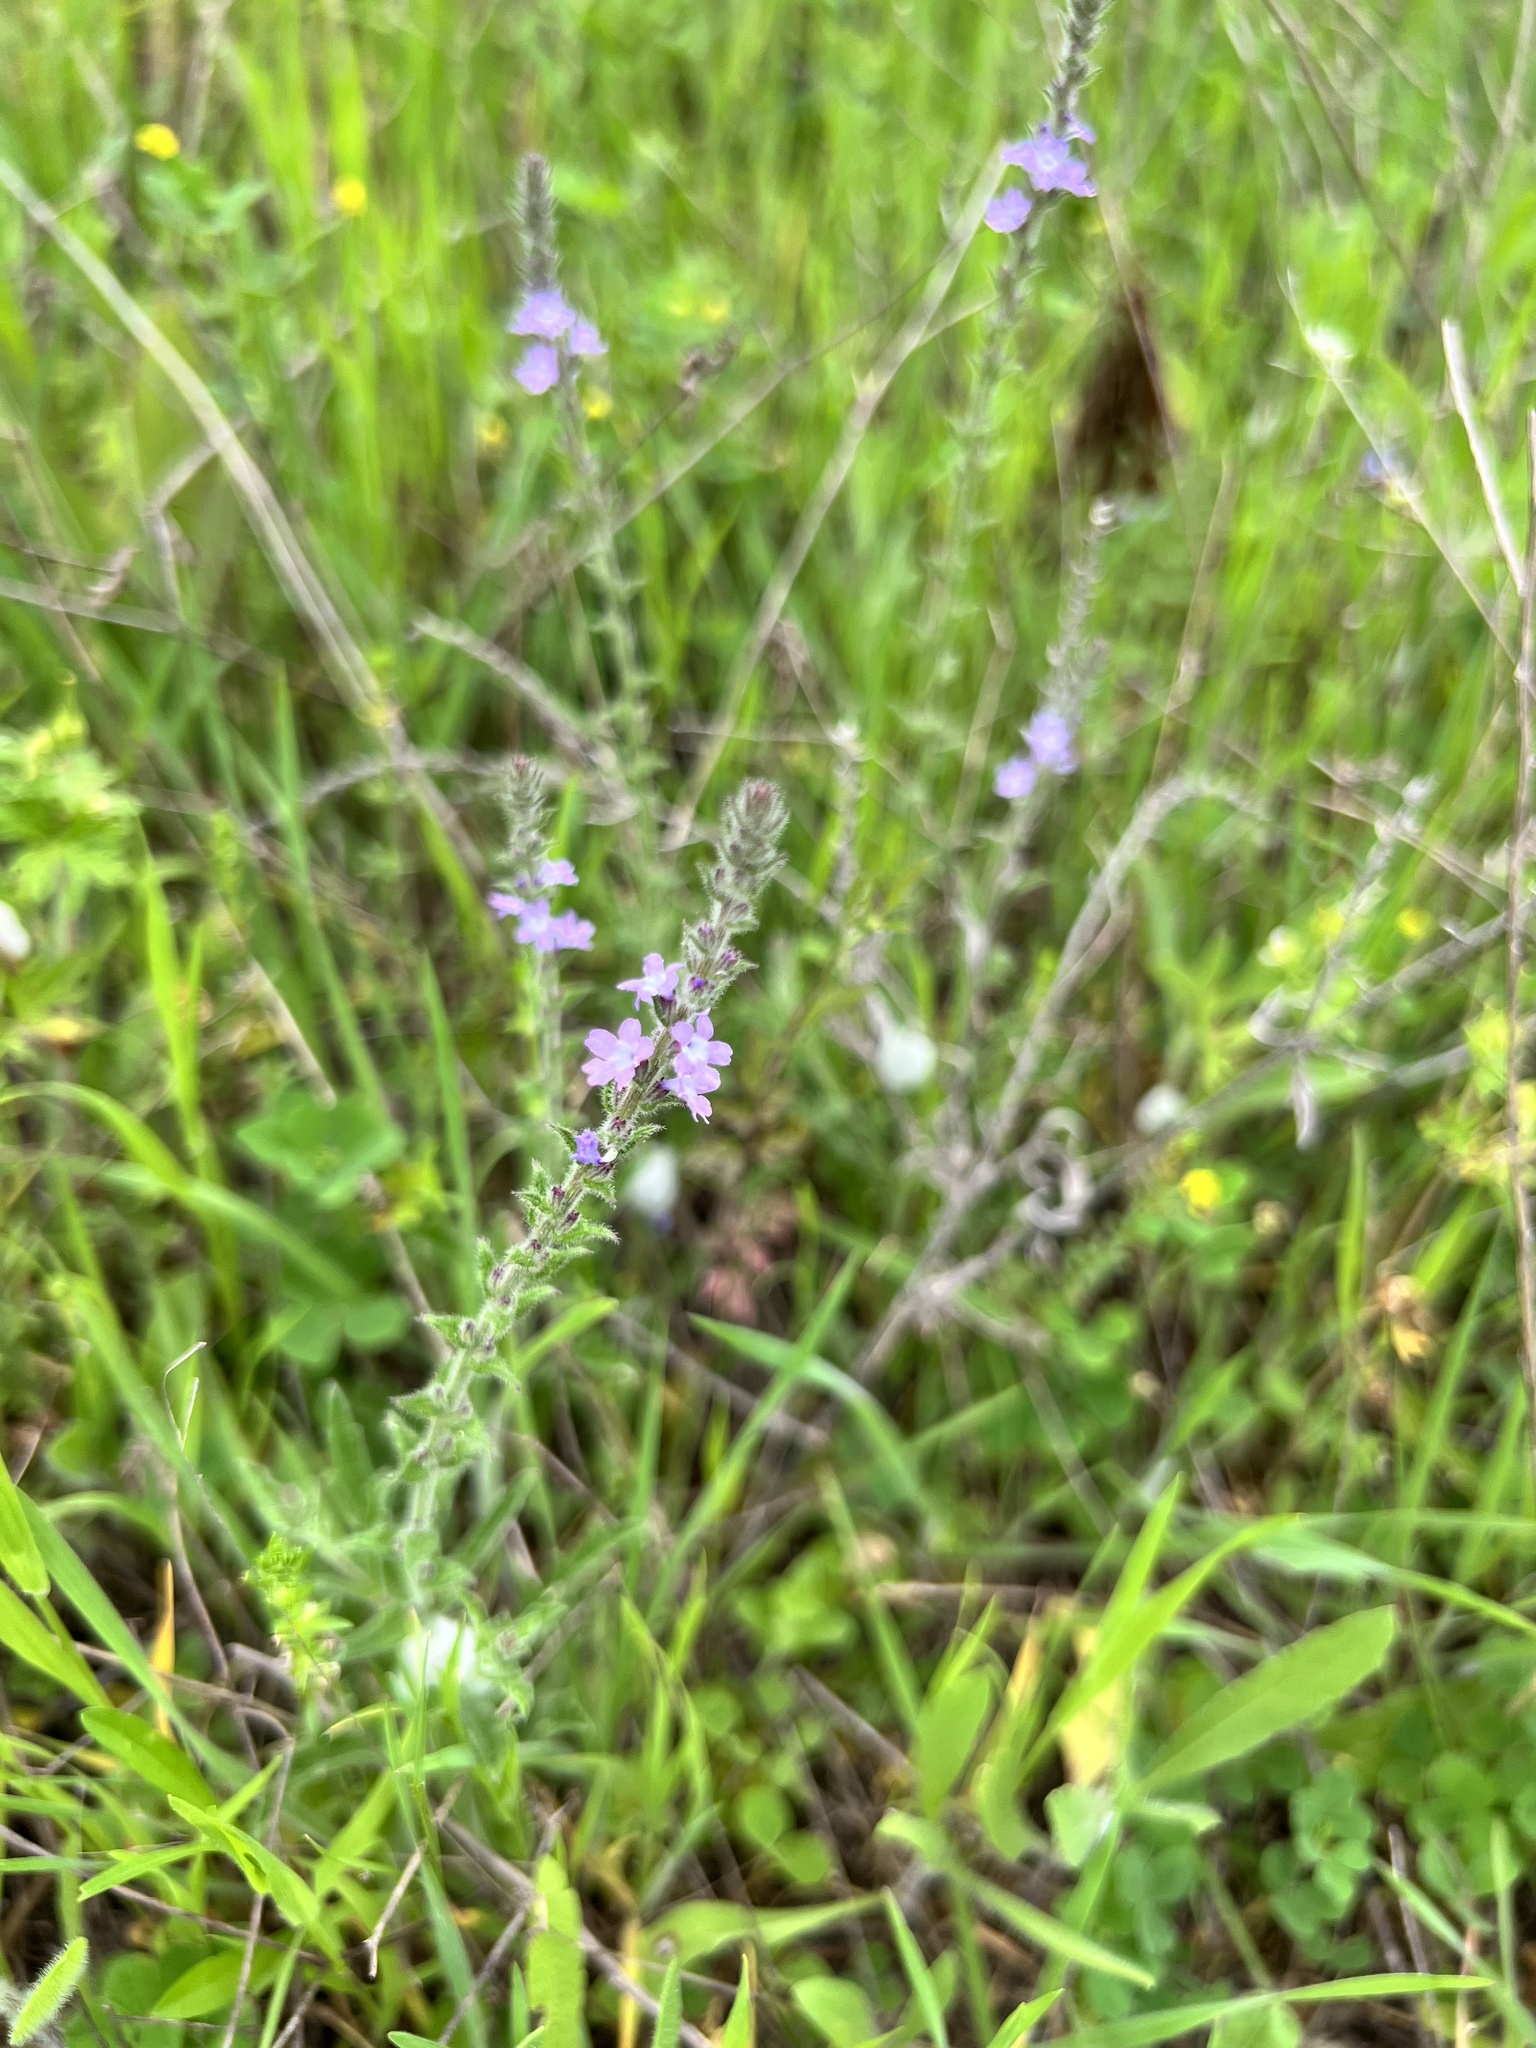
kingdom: Plantae
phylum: Tracheophyta
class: Magnoliopsida
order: Lamiales
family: Verbenaceae
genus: Verbena
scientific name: Verbena canescens
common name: Gray vervain
